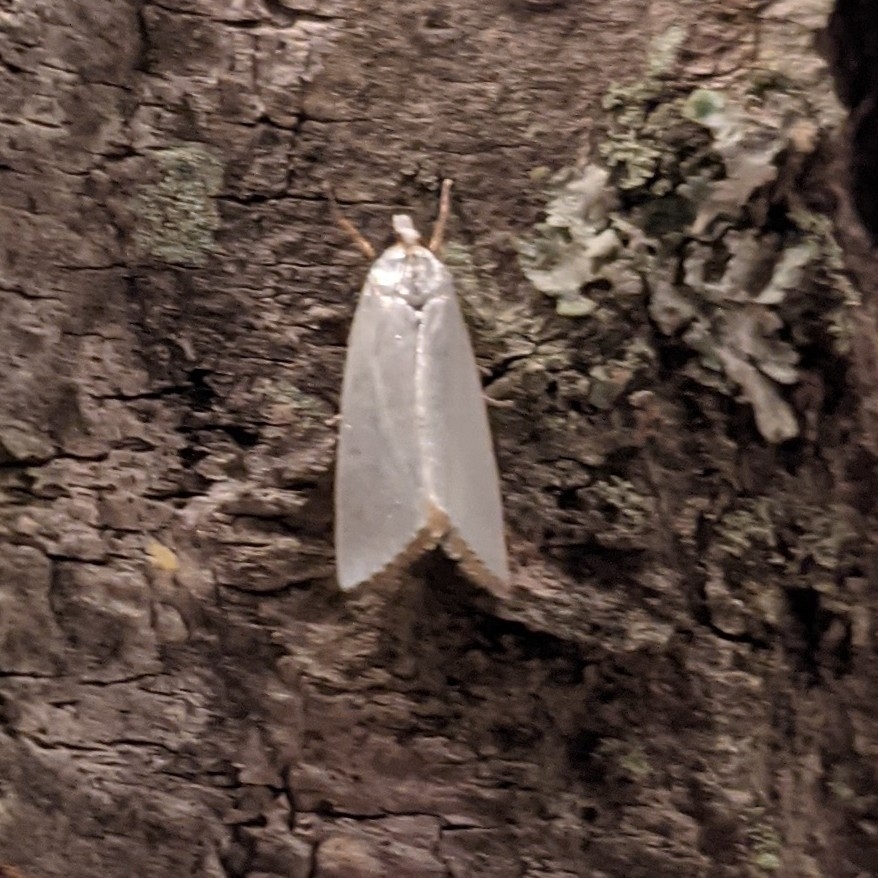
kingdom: Animalia
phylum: Arthropoda
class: Insecta
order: Lepidoptera
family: Crambidae
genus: Argyria
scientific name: Argyria nivalis
